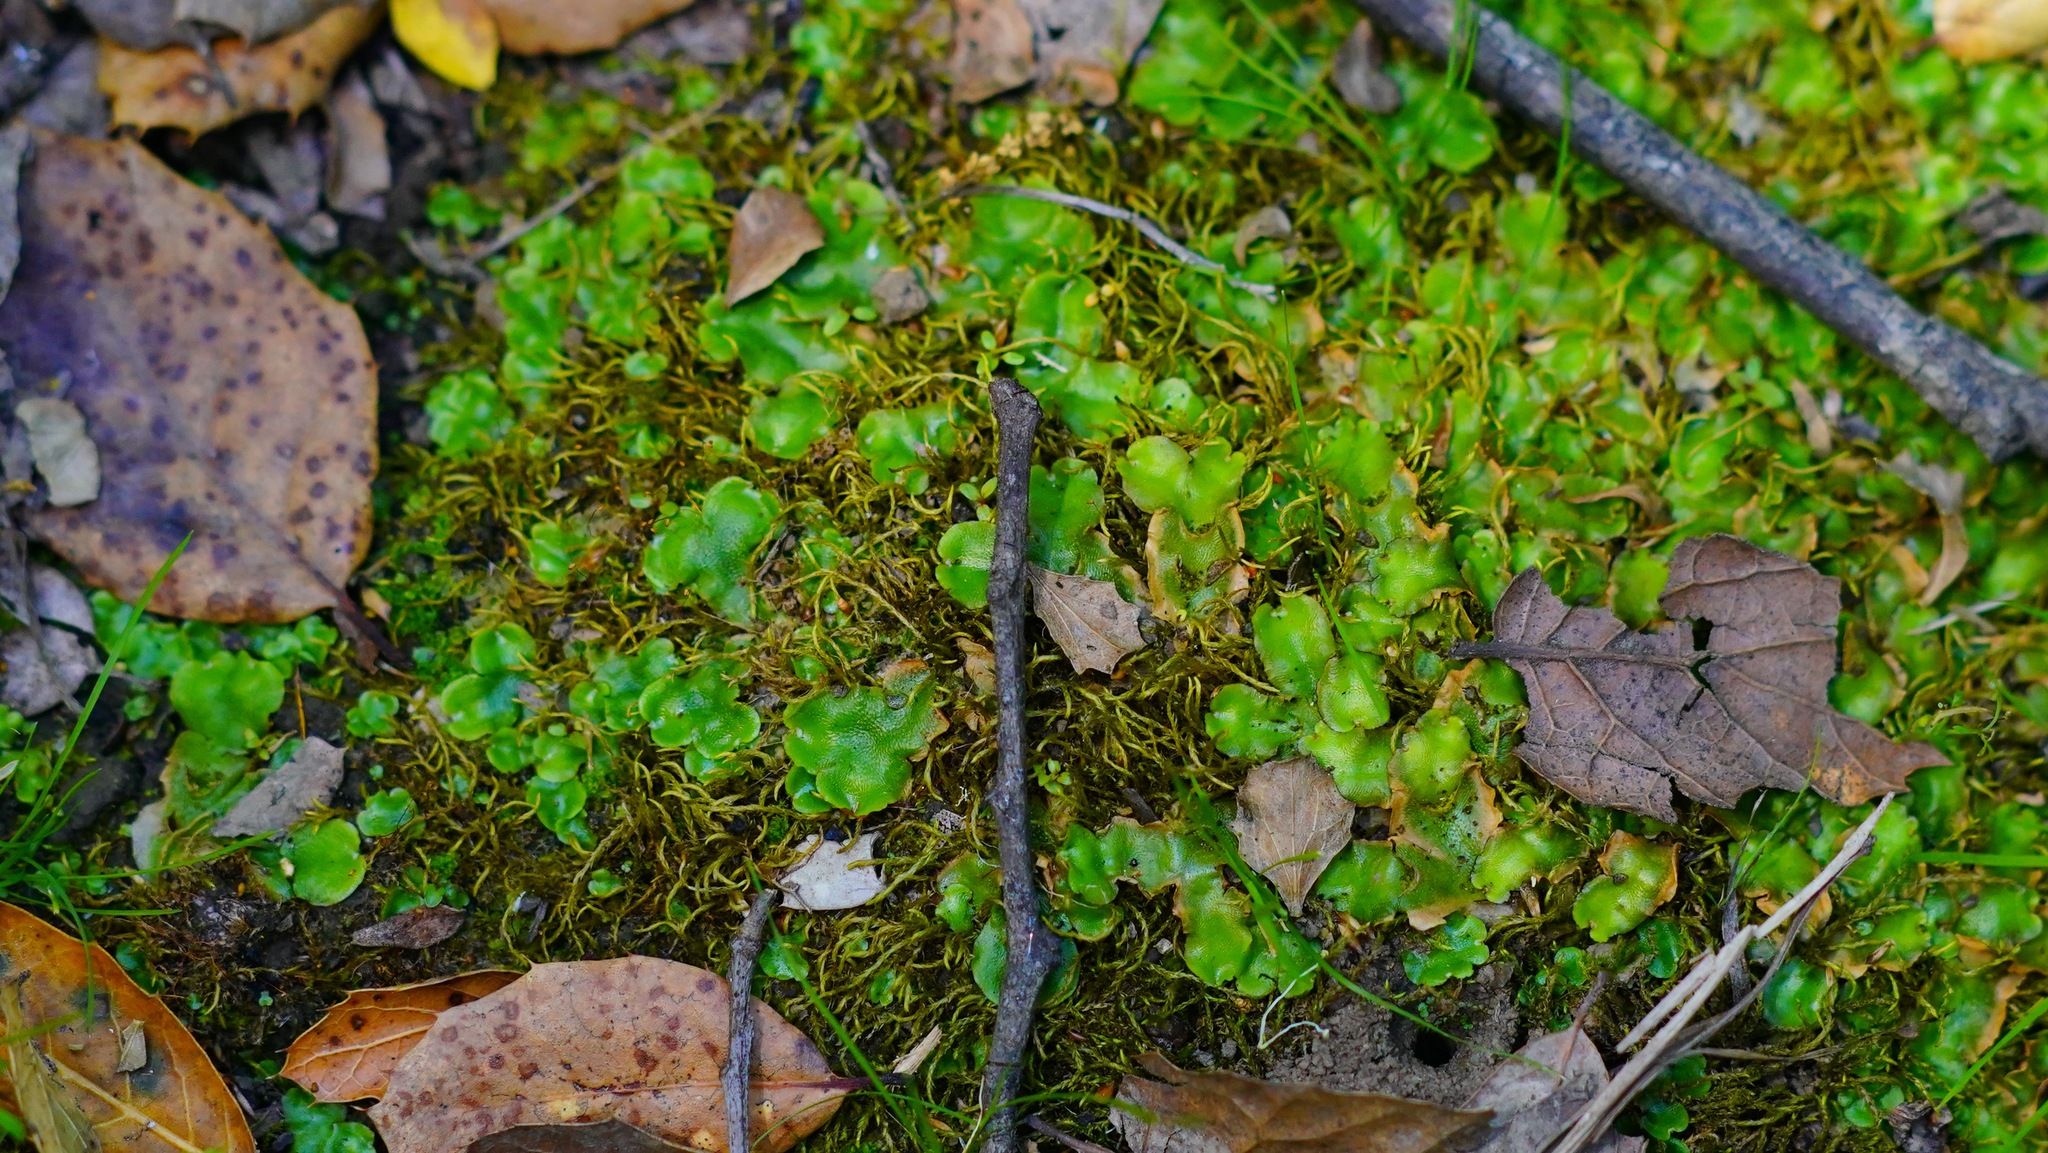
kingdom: Plantae
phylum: Marchantiophyta
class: Marchantiopsida
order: Lunulariales
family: Lunulariaceae
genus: Lunularia
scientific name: Lunularia cruciata
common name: Crescent-cup liverwort
